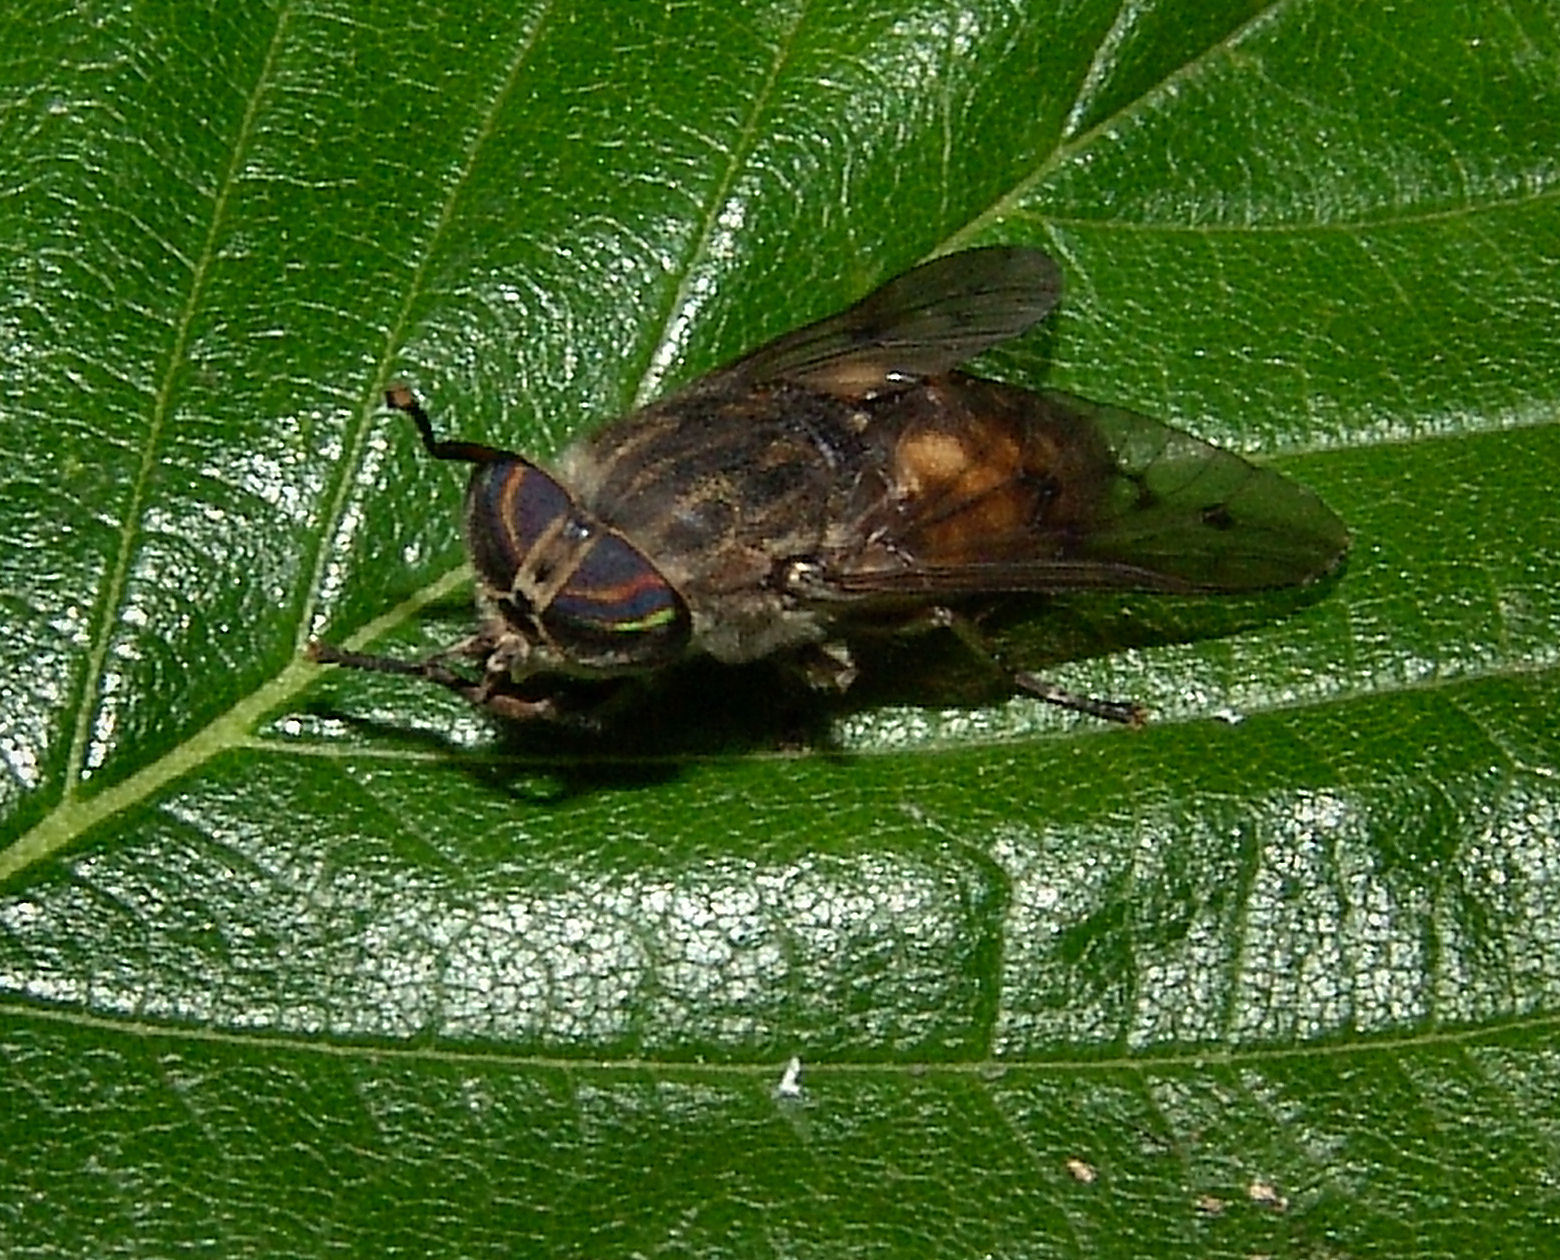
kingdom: Animalia
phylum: Arthropoda
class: Insecta
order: Diptera
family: Tabanidae
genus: Hybomitra
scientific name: Hybomitra lasiophthalma
